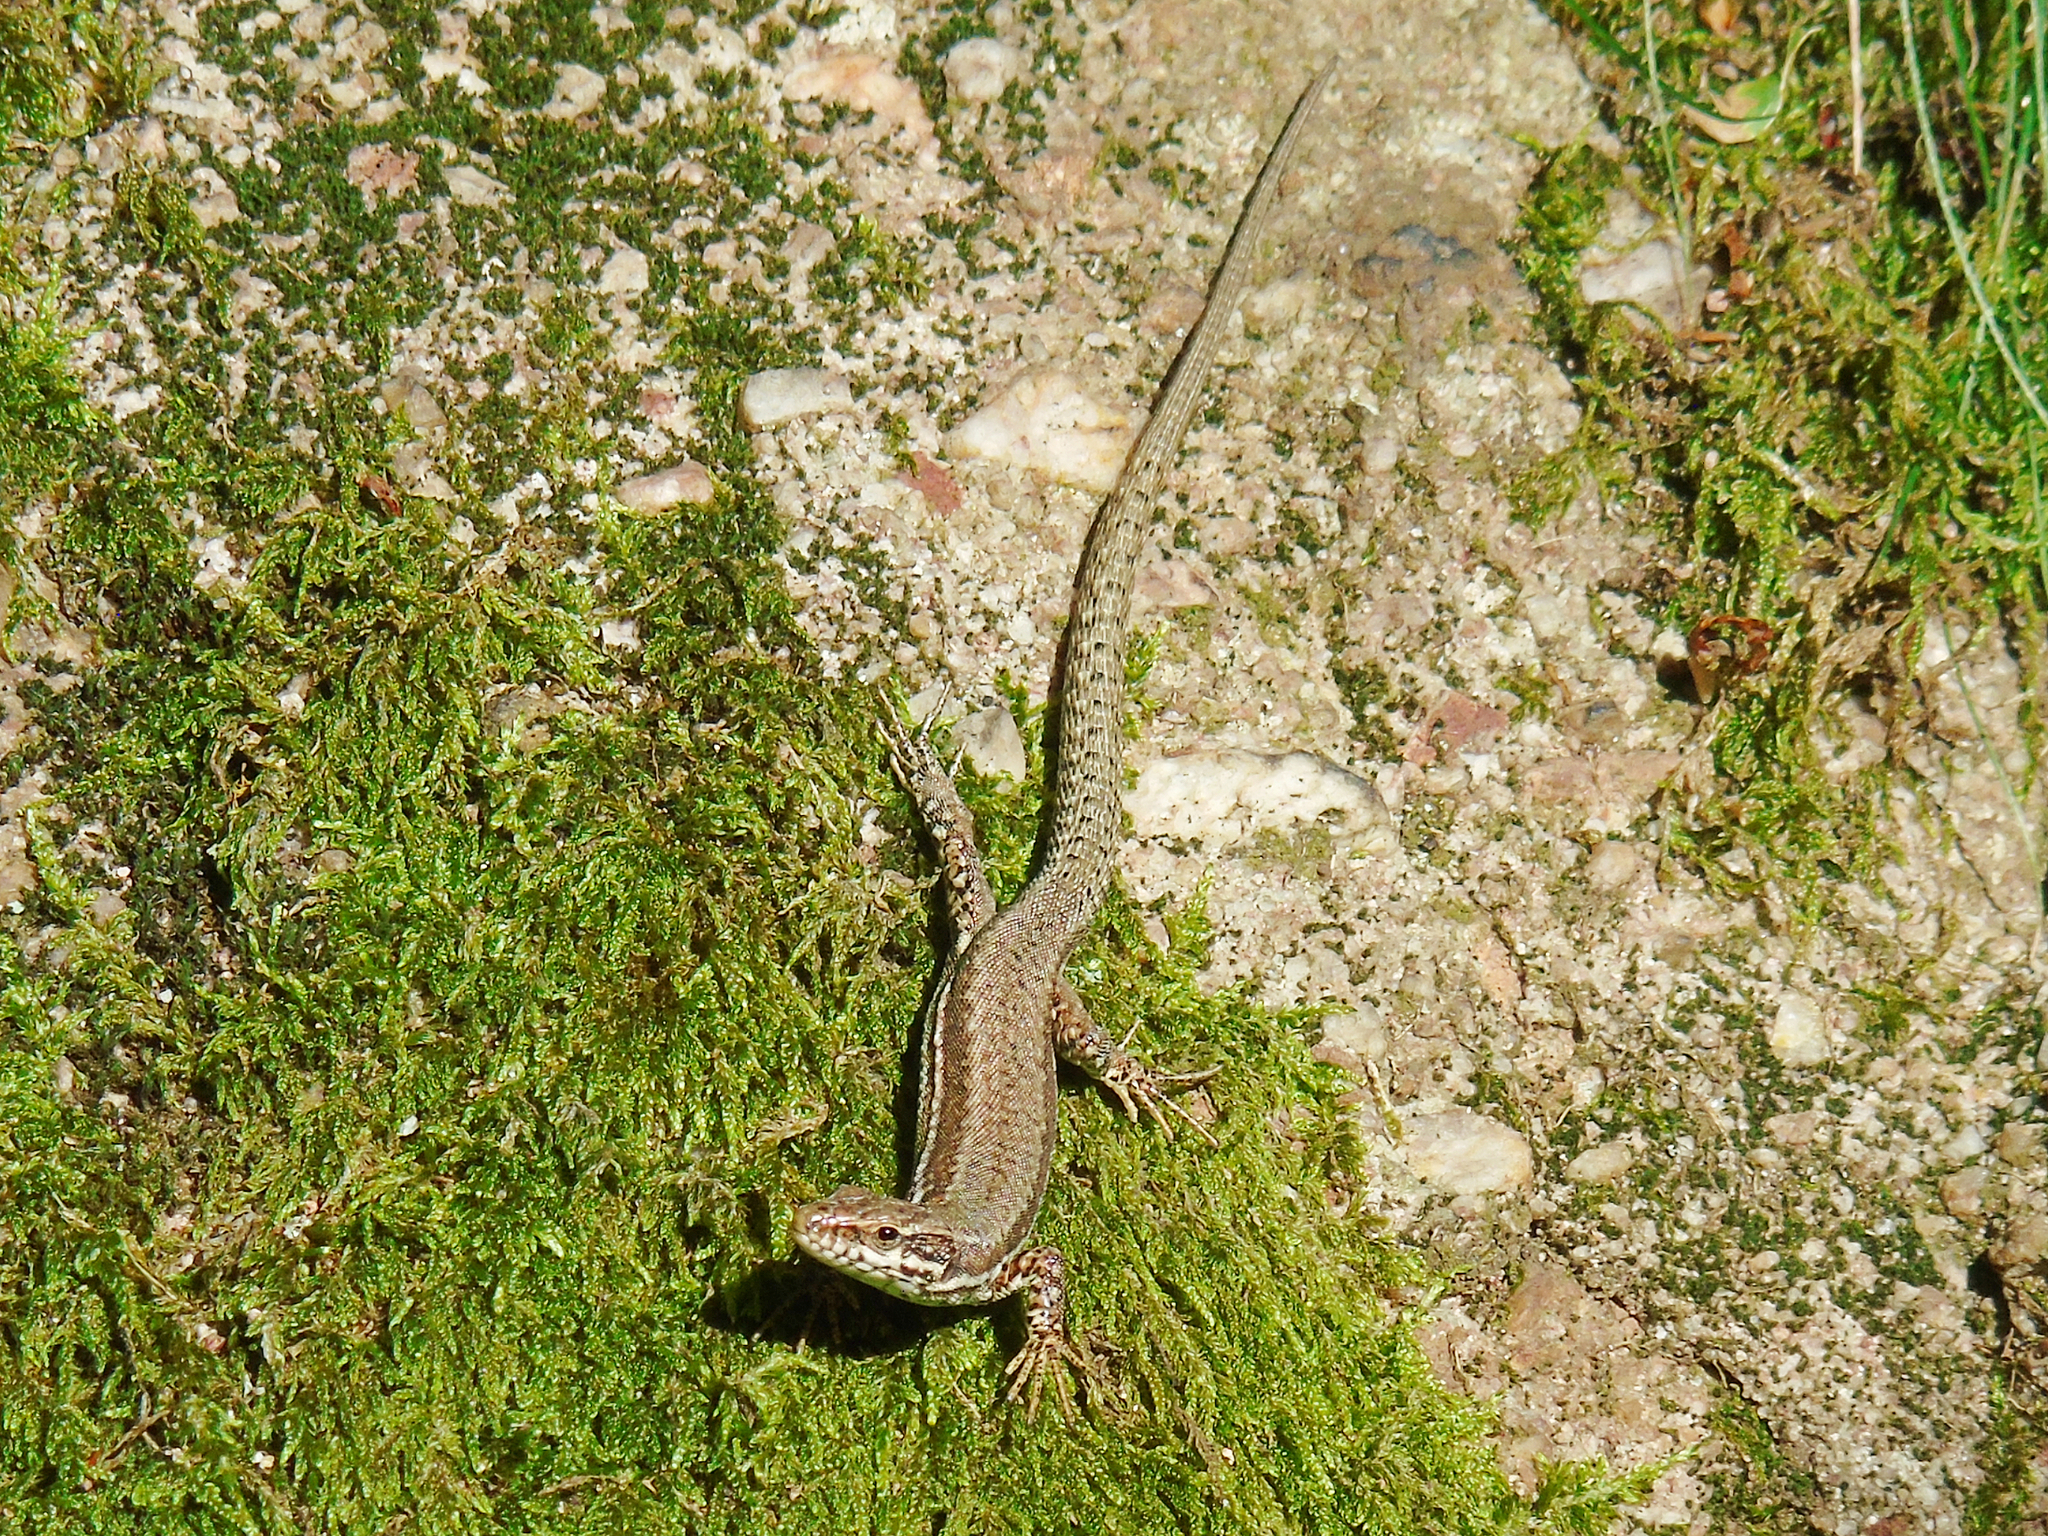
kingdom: Animalia
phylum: Chordata
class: Squamata
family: Lacertidae
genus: Podarcis
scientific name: Podarcis muralis
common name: Common wall lizard
